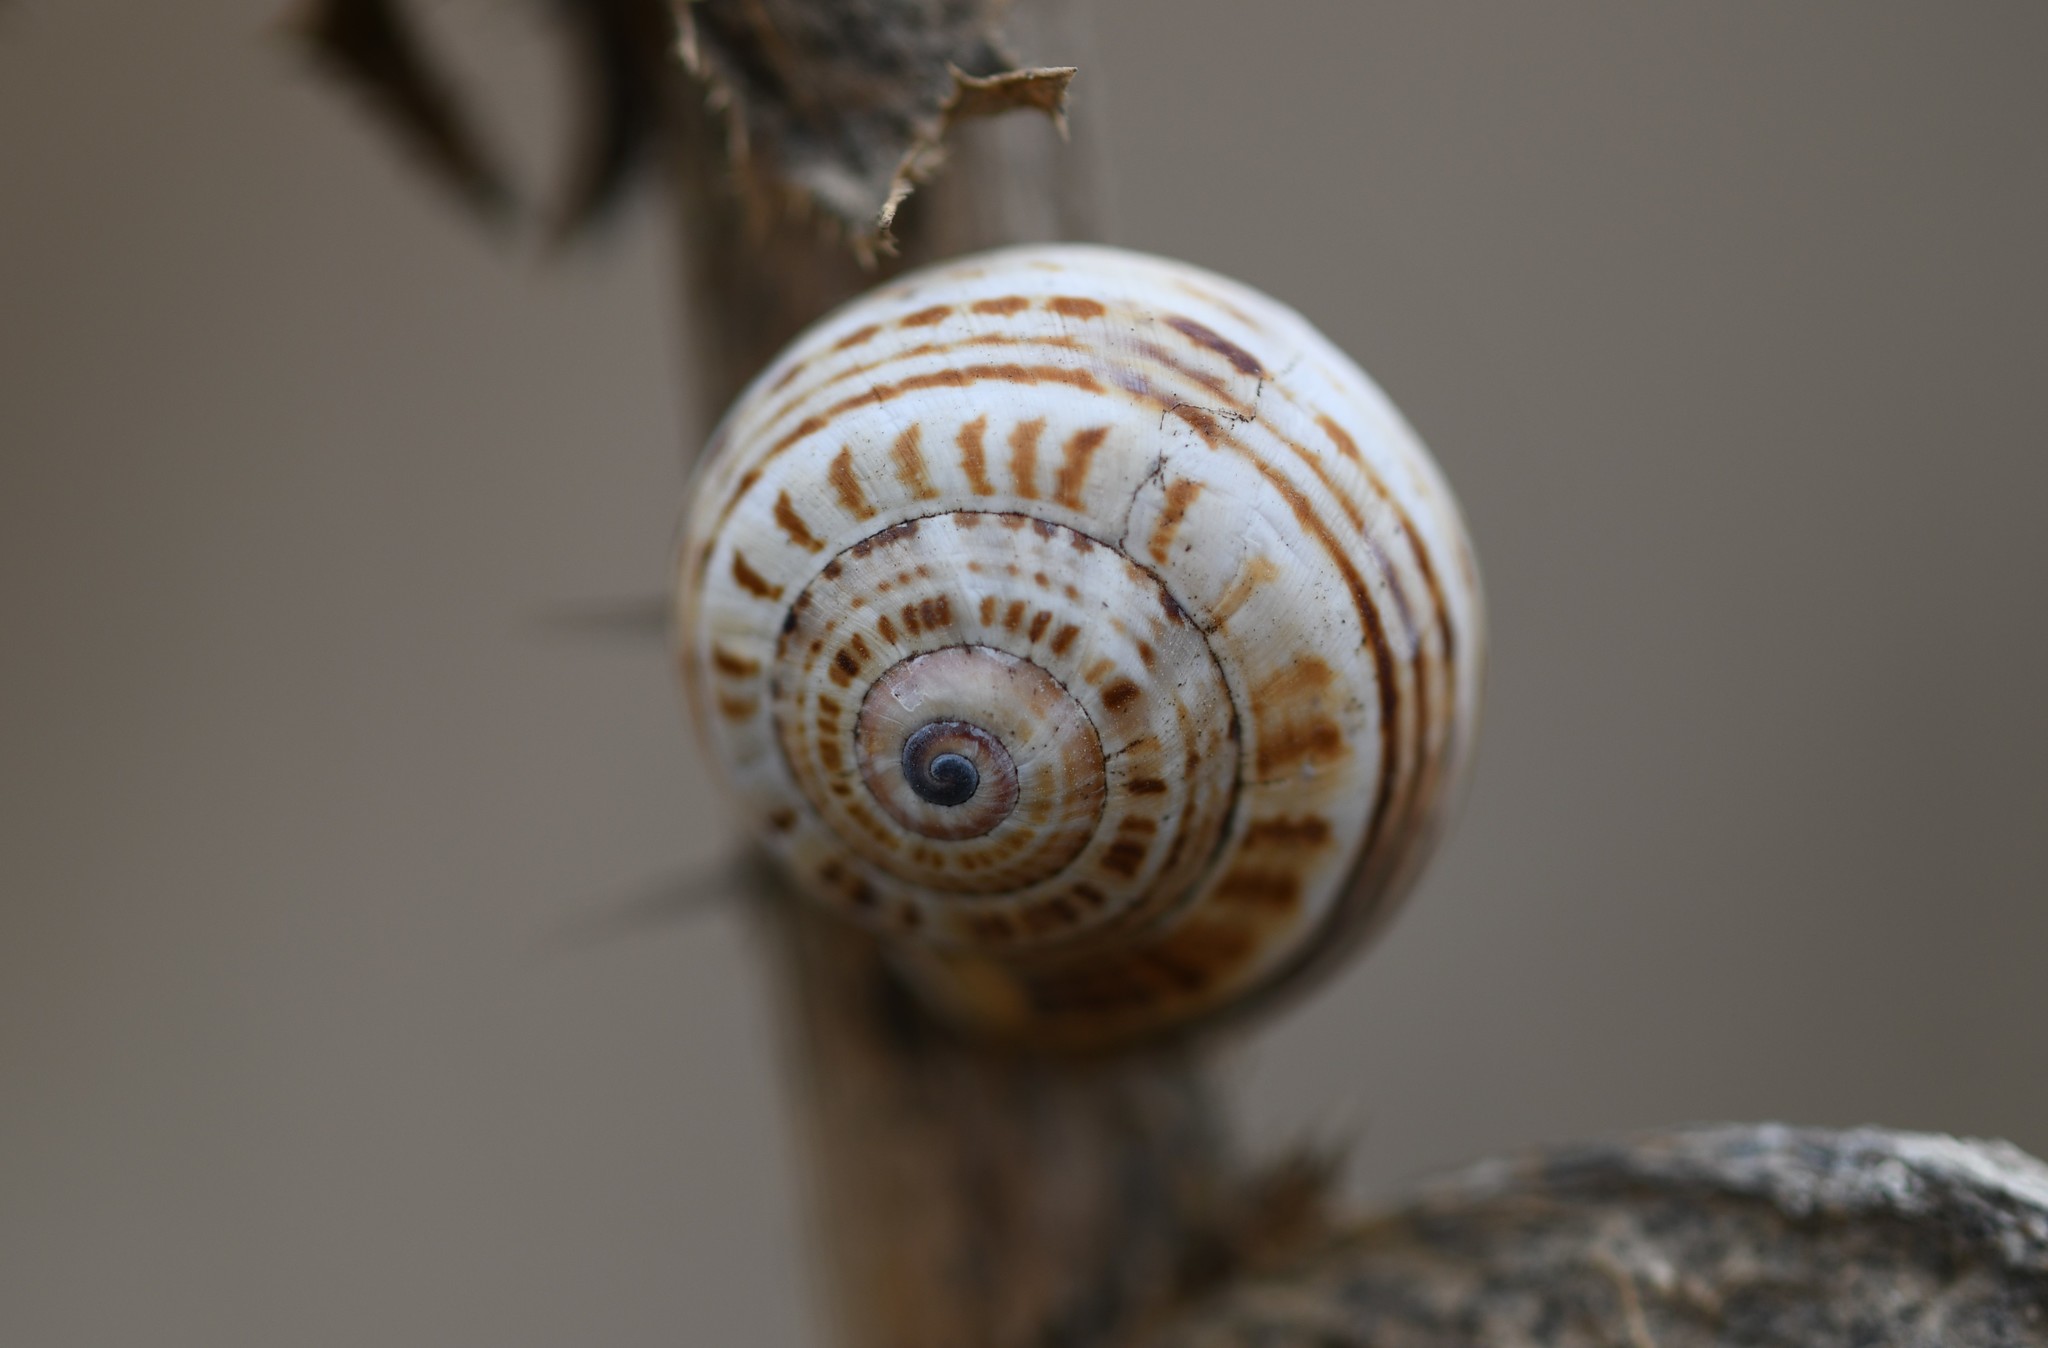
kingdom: Animalia
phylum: Mollusca
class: Gastropoda
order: Stylommatophora
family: Helicidae
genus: Theba
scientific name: Theba pisana
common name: White snail
